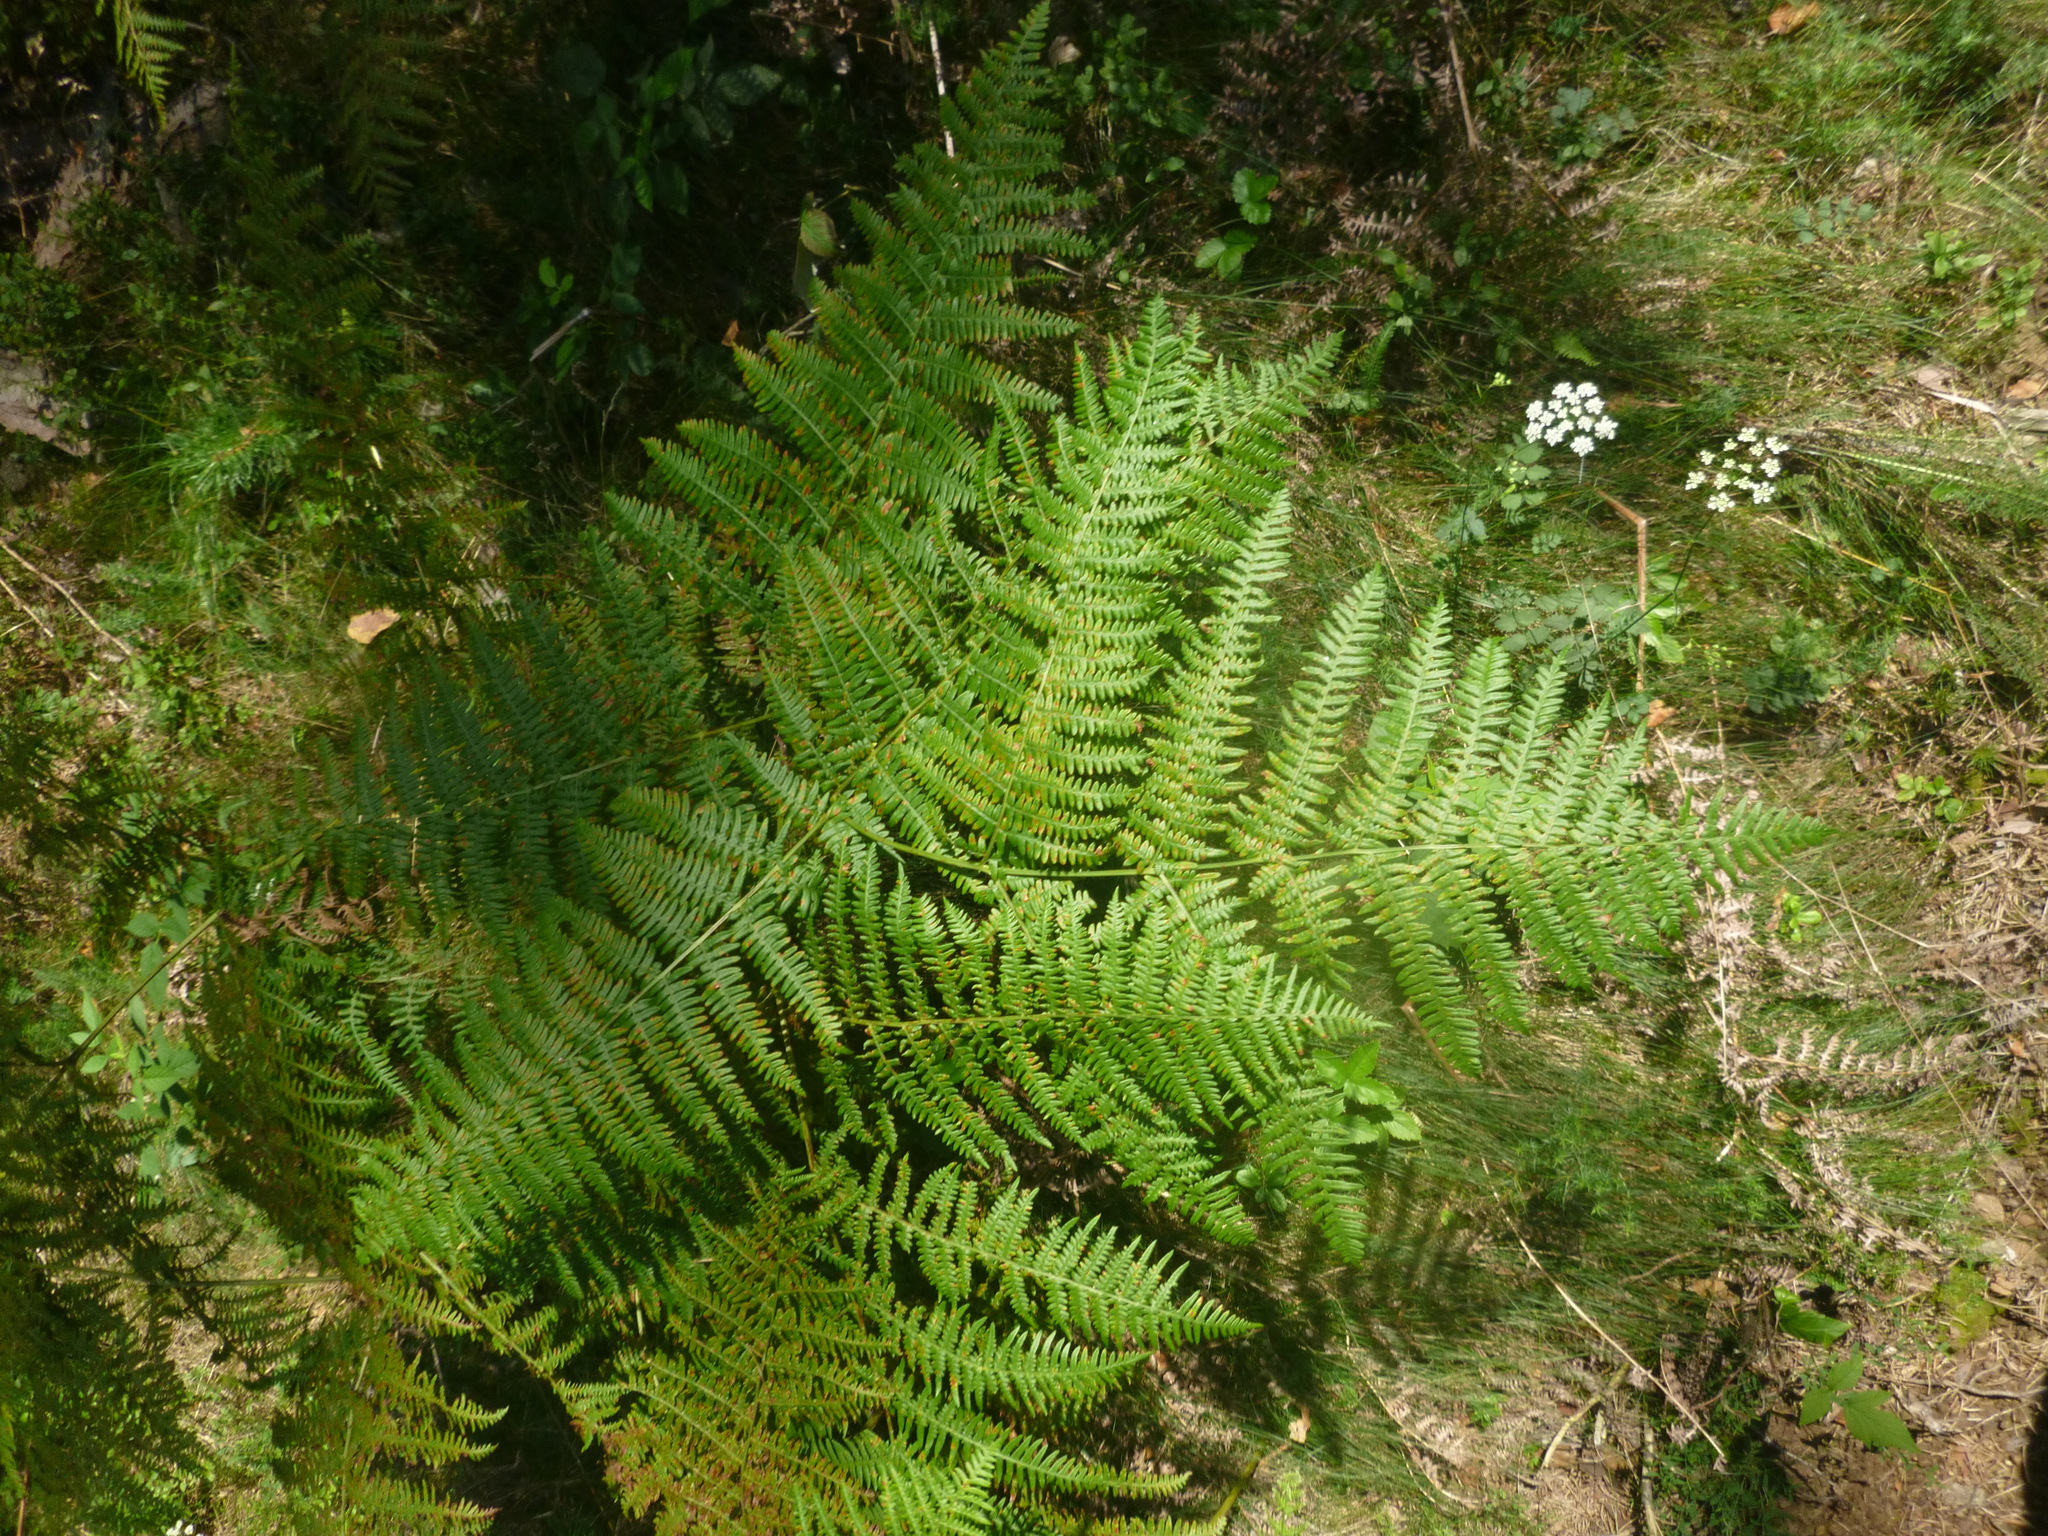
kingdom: Plantae
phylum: Tracheophyta
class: Polypodiopsida
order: Polypodiales
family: Dennstaedtiaceae
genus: Pteridium
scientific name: Pteridium aquilinum
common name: Bracken
